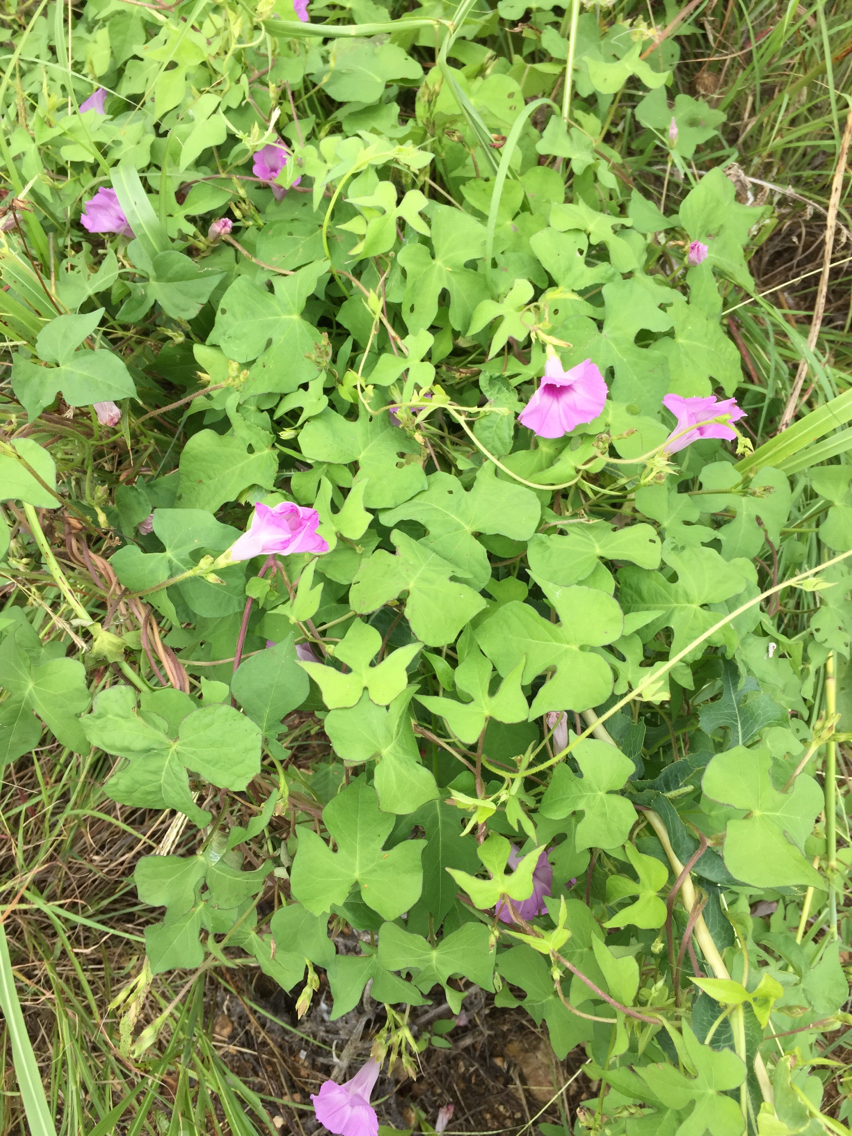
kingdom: Plantae
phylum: Tracheophyta
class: Magnoliopsida
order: Solanales
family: Convolvulaceae
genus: Ipomoea
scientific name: Ipomoea cordatotriloba
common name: Cotton morning glory
